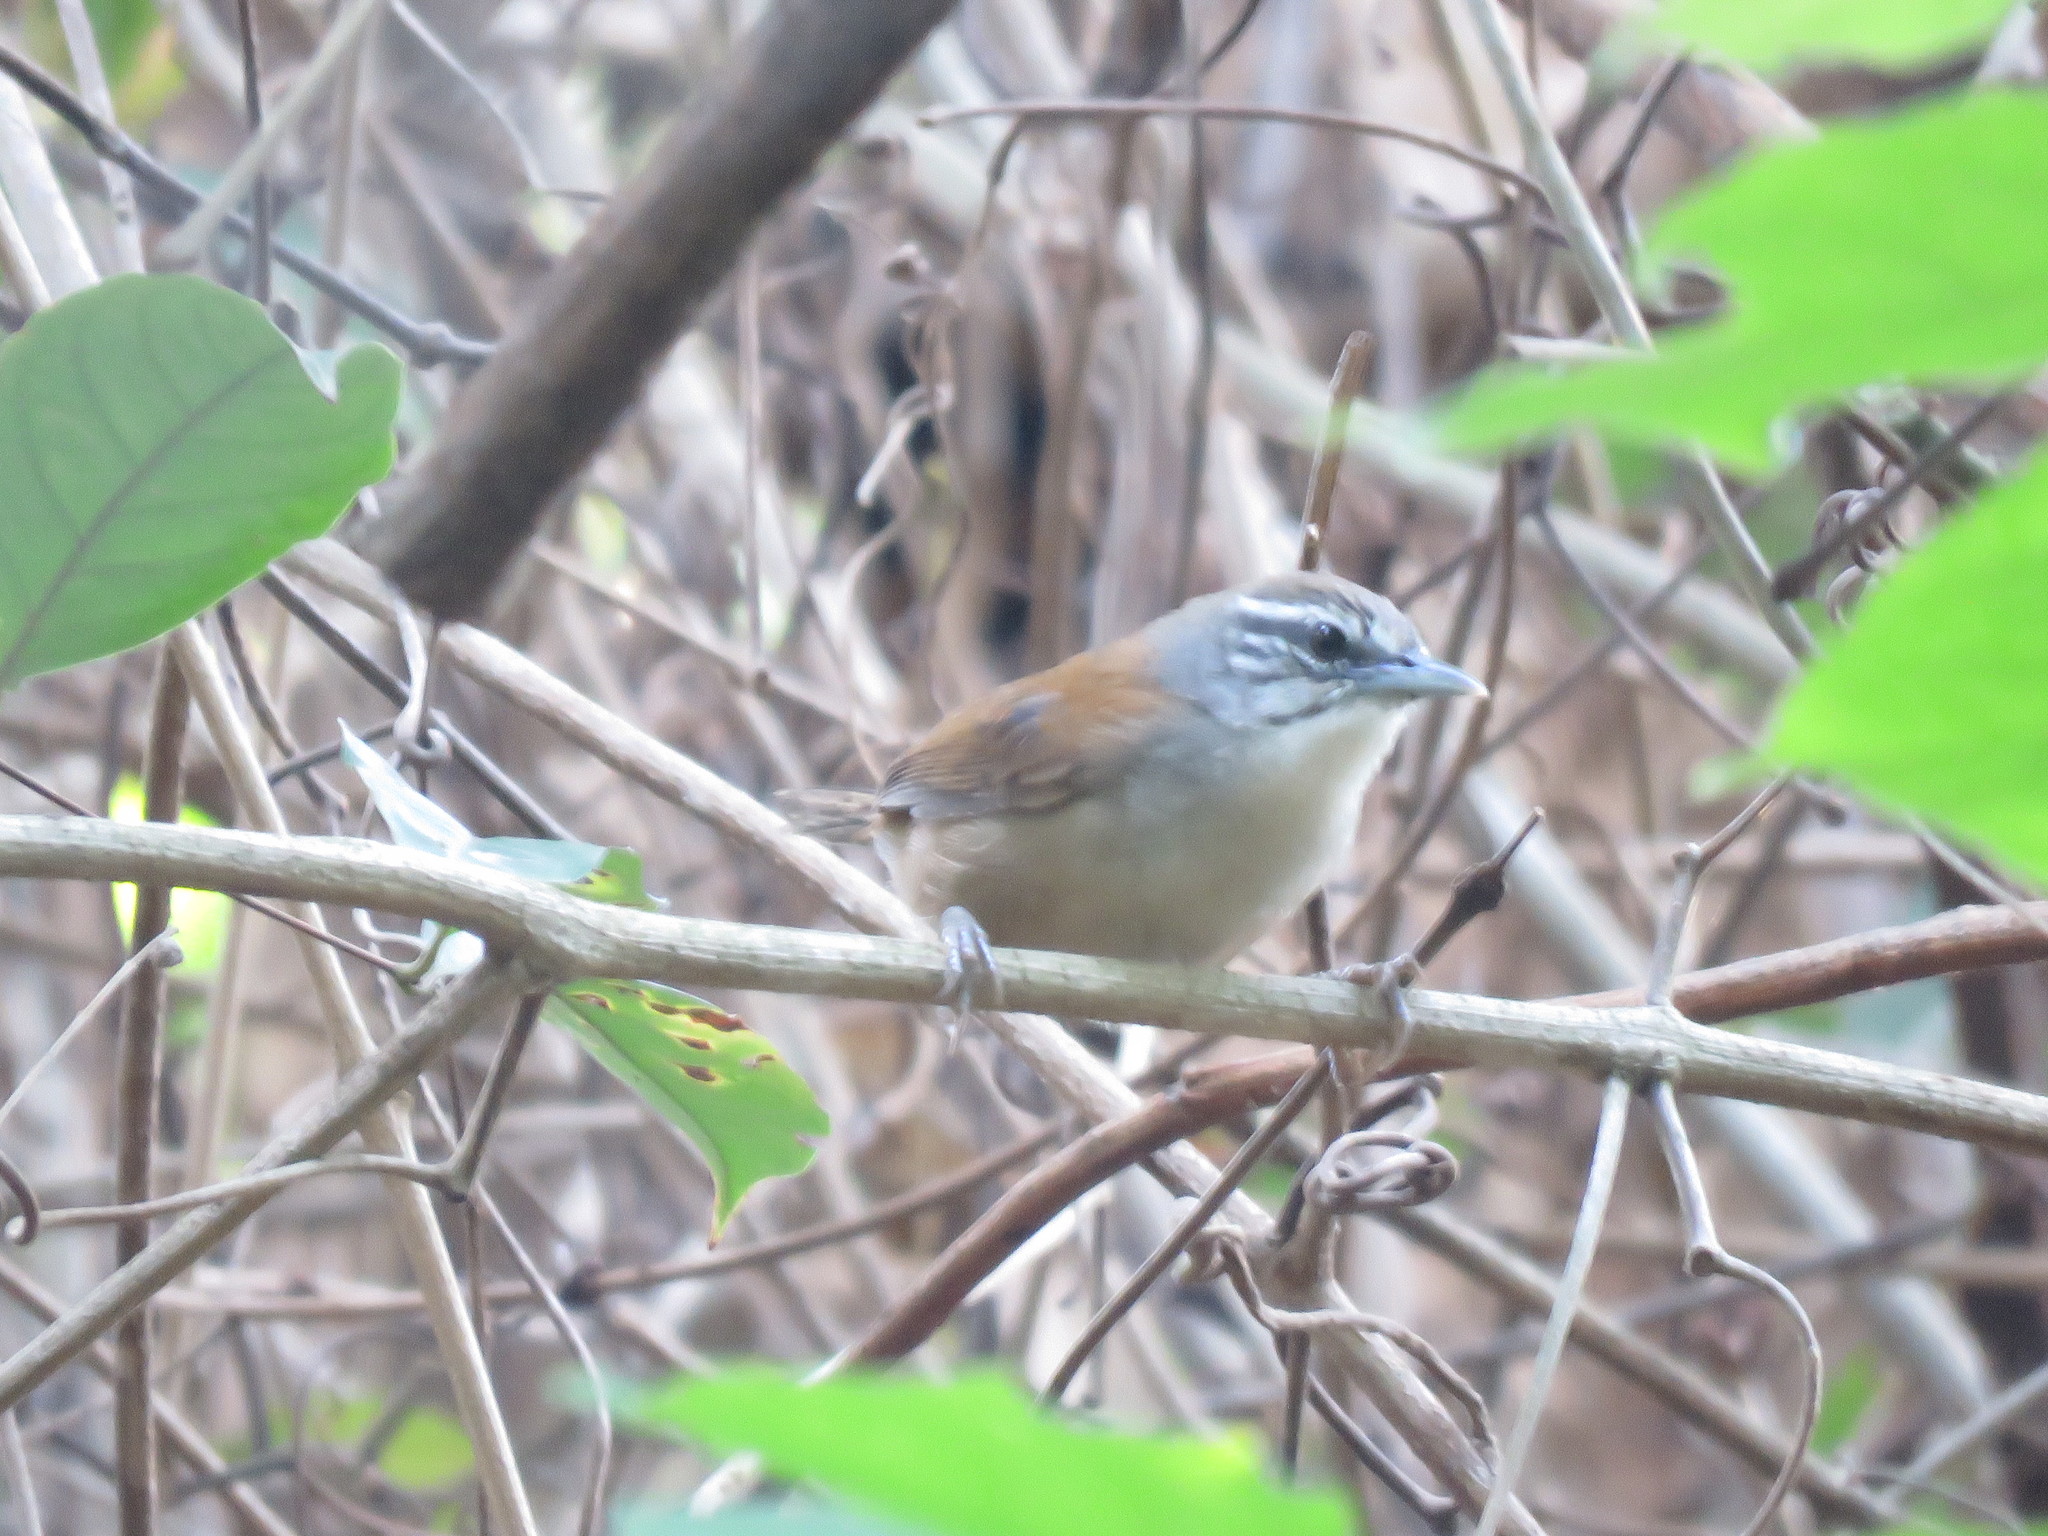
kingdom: Animalia
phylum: Chordata
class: Aves
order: Passeriformes
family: Troglodytidae
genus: Pheugopedius
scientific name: Pheugopedius genibarbis
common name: Moustached wren
